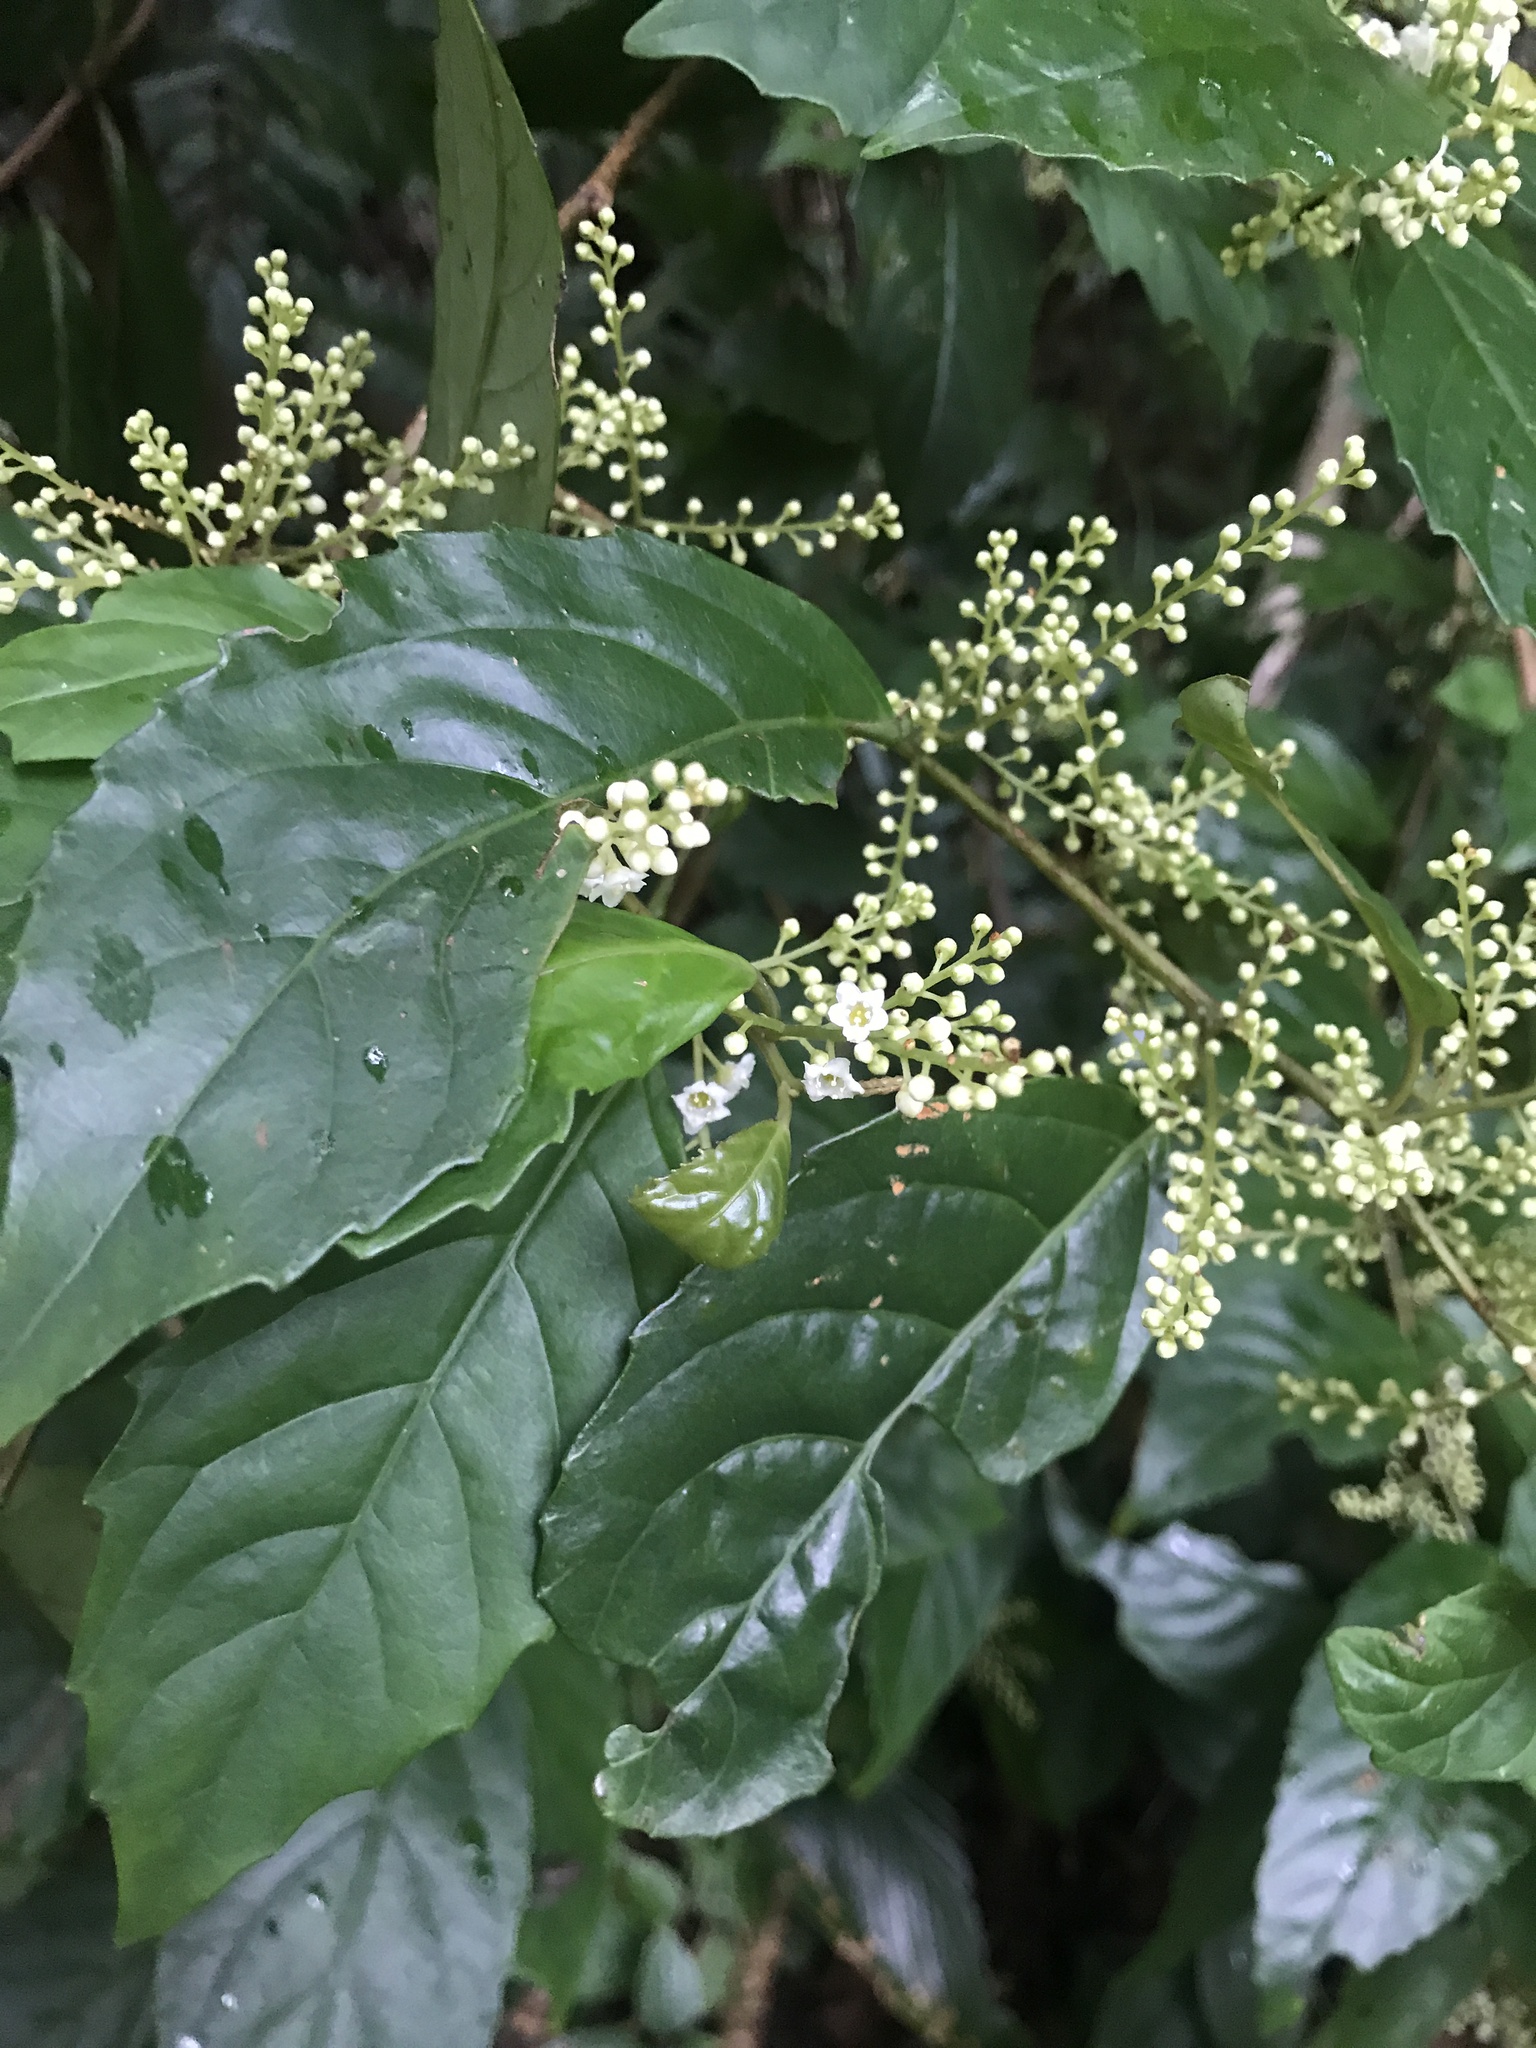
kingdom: Plantae
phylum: Tracheophyta
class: Magnoliopsida
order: Ericales
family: Primulaceae
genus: Maesa
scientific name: Maesa perlaria
